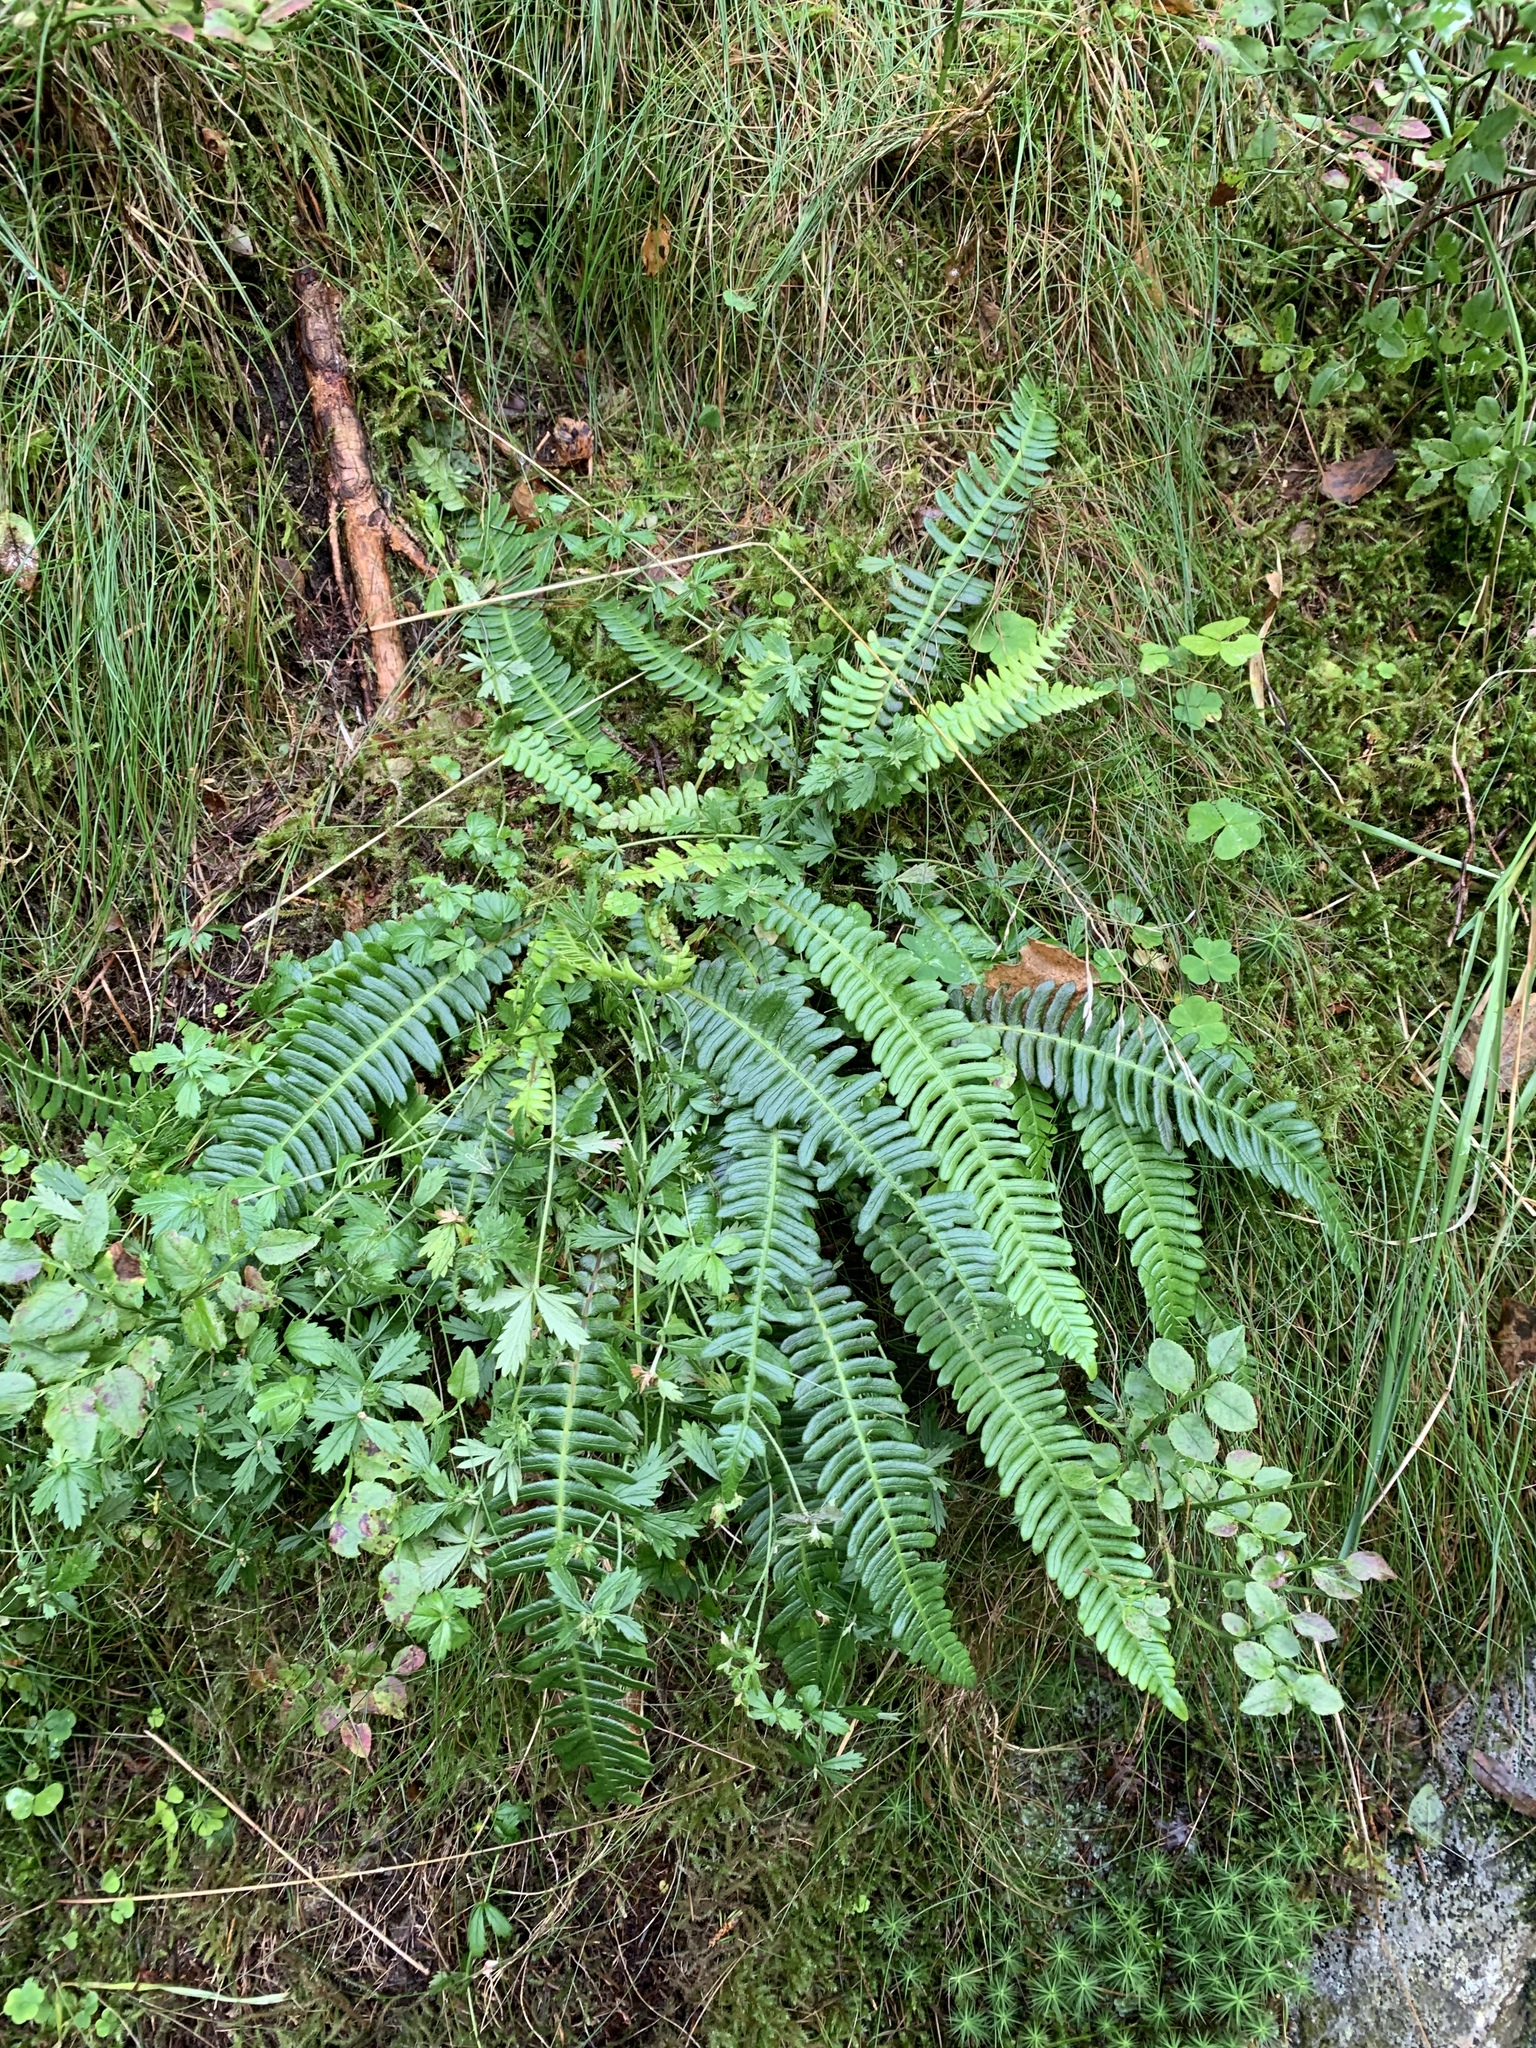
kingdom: Plantae
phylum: Tracheophyta
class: Polypodiopsida
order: Polypodiales
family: Blechnaceae
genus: Struthiopteris
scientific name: Struthiopteris spicant
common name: Deer fern
